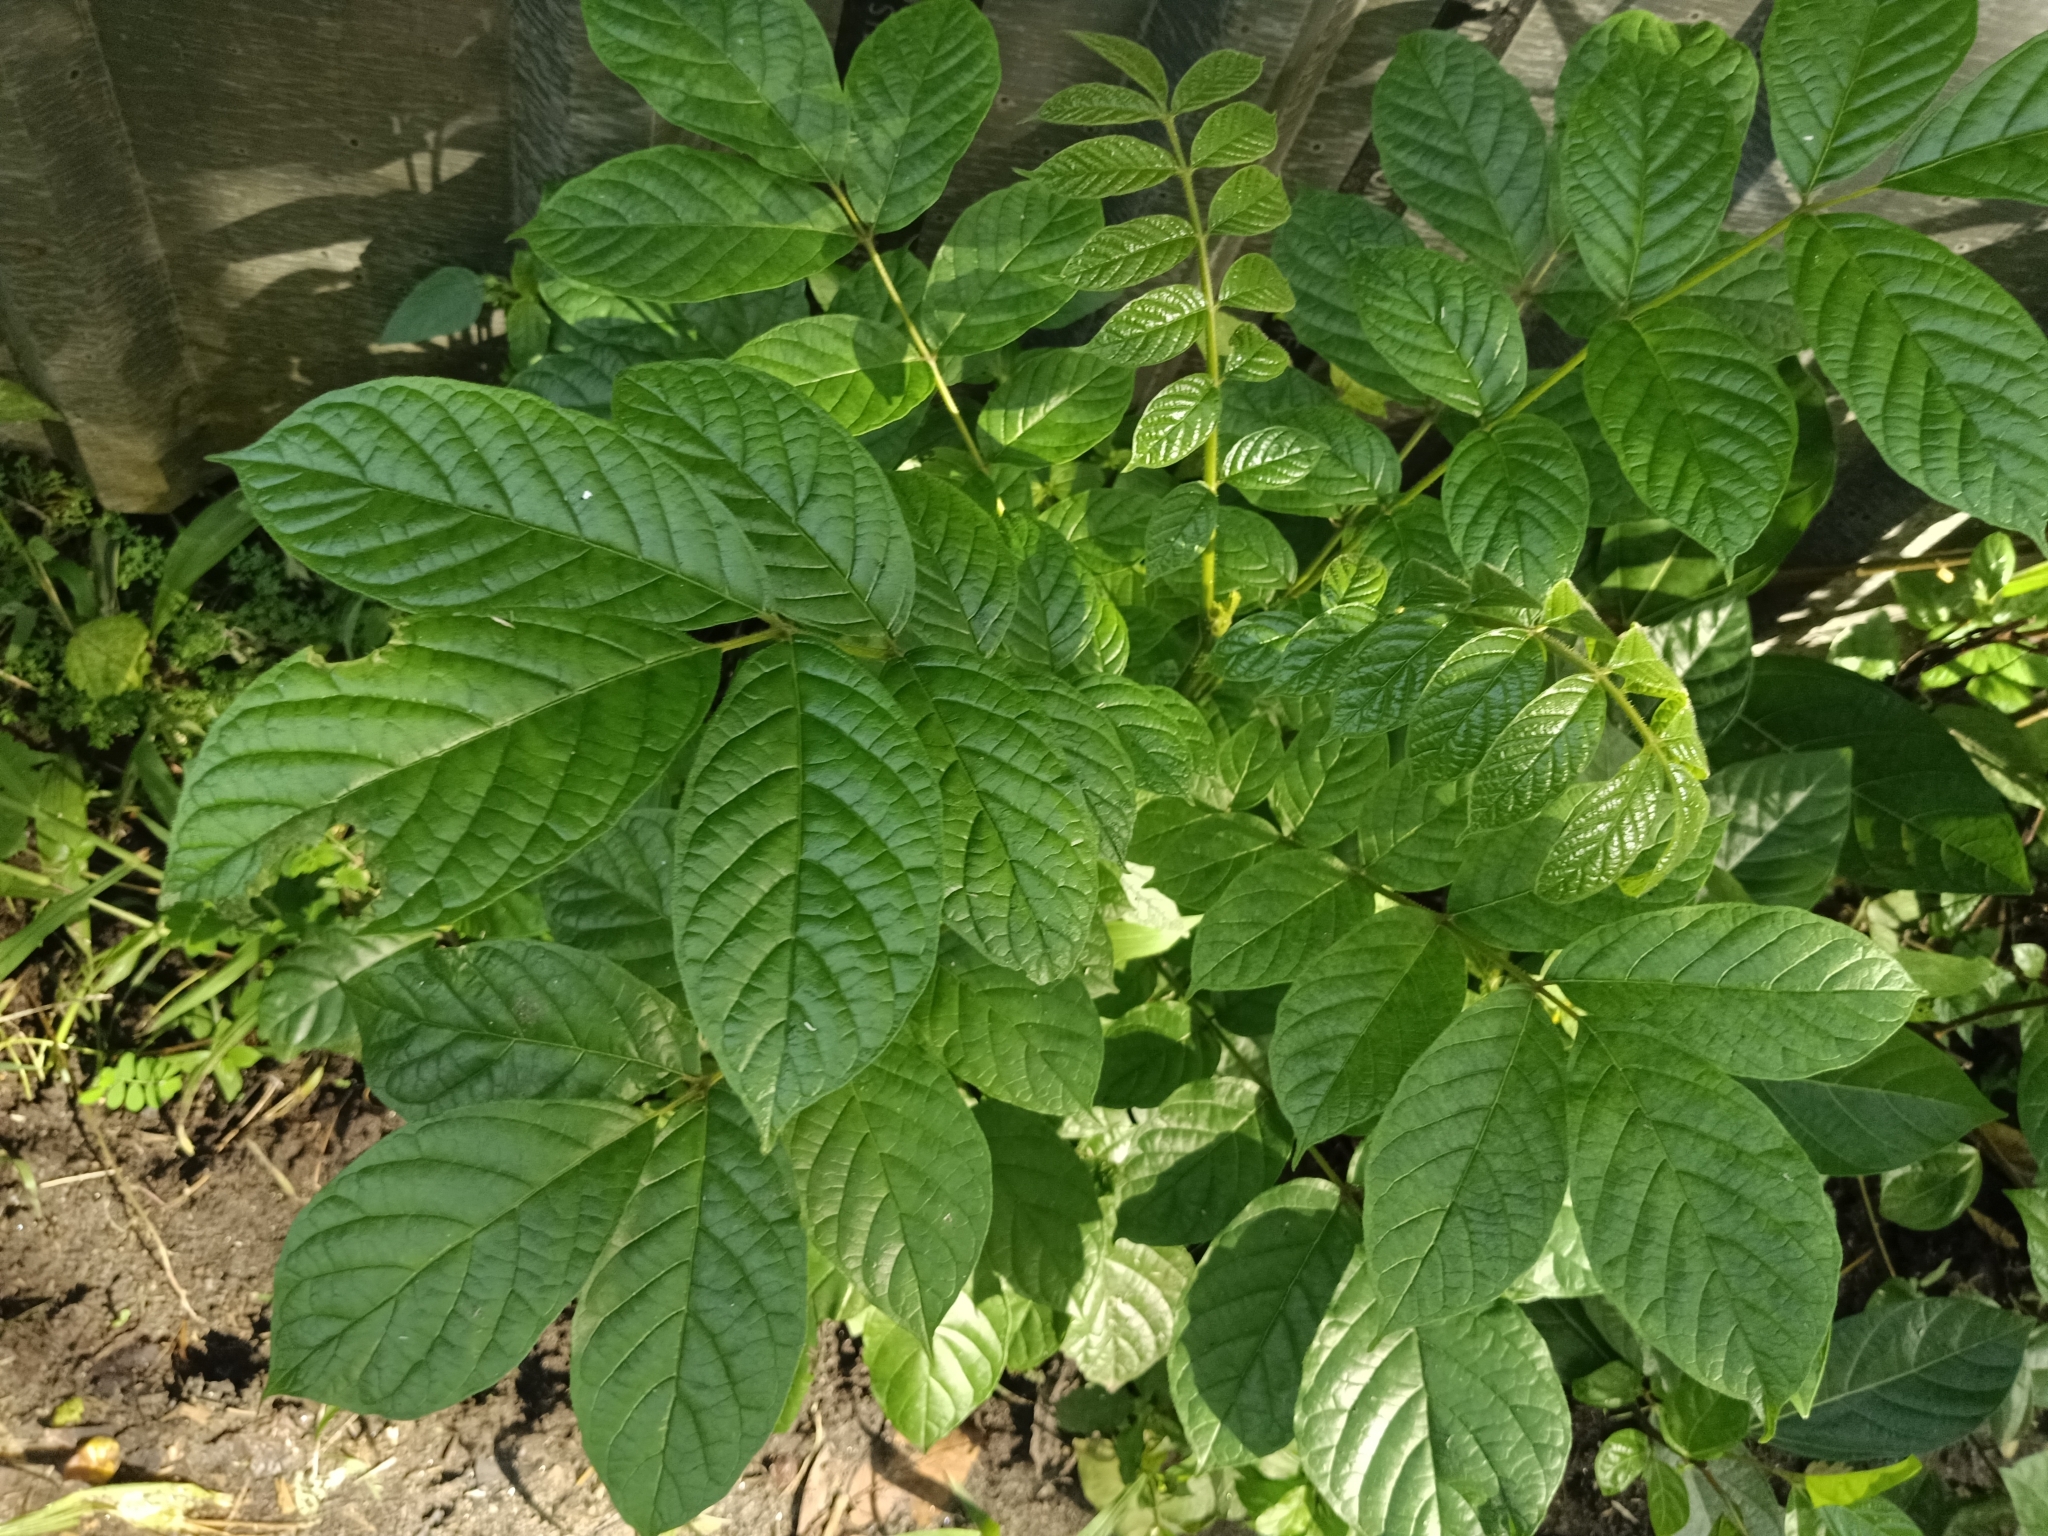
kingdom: Plantae
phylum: Tracheophyta
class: Magnoliopsida
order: Lamiales
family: Bignoniaceae
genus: Spathodea
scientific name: Spathodea campanulata
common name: African tuliptree
